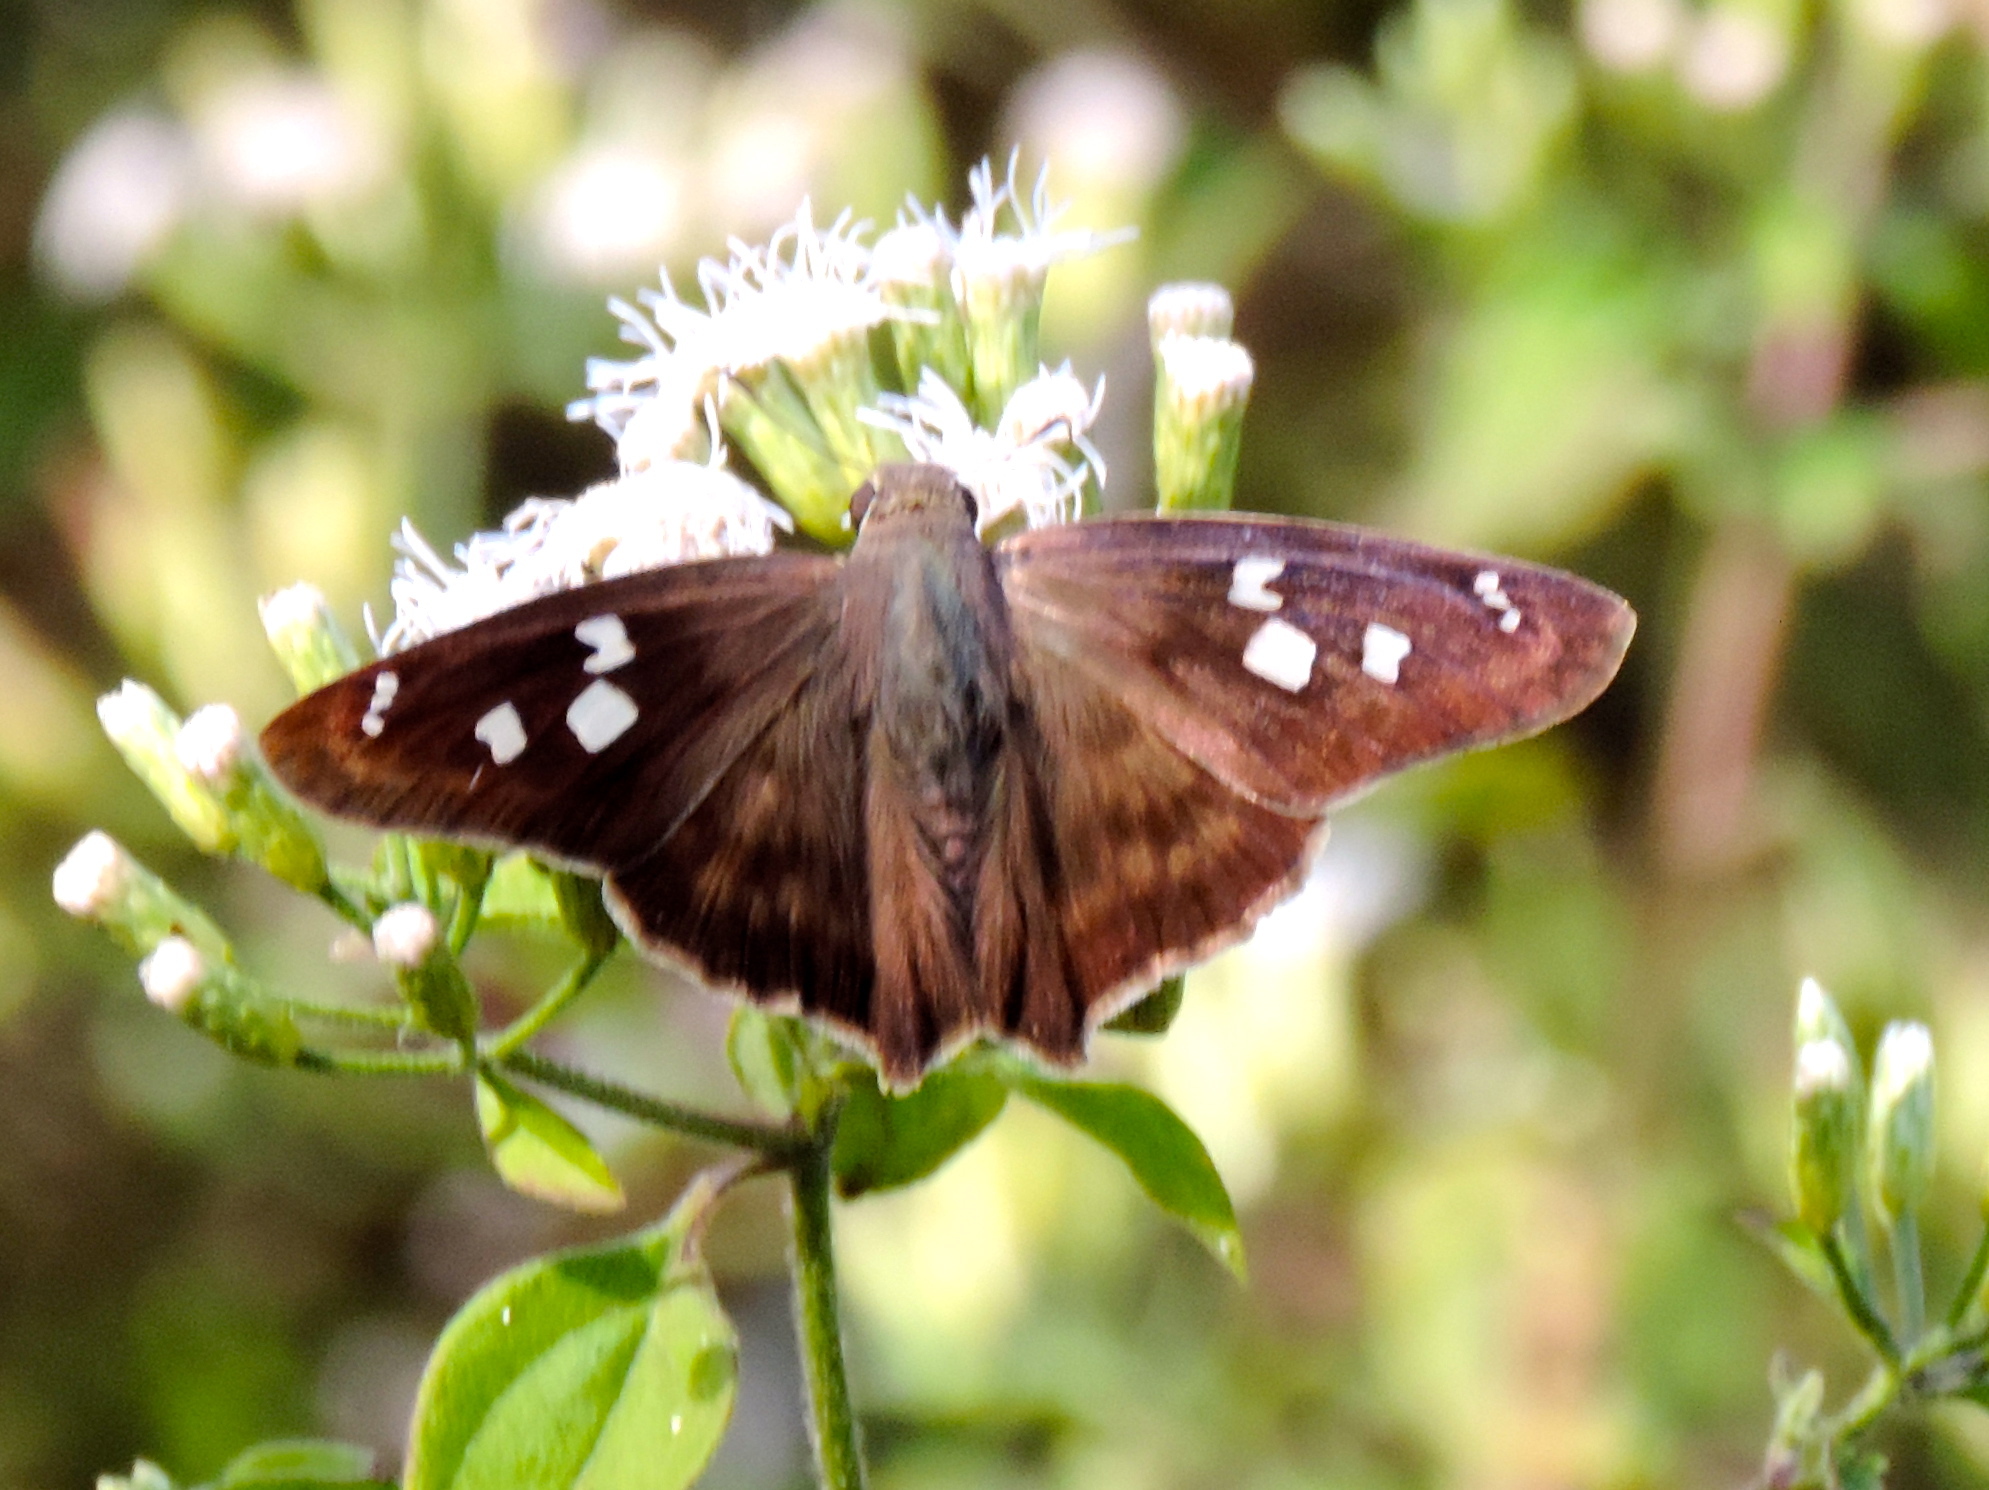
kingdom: Animalia
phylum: Arthropoda
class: Insecta
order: Lepidoptera
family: Hesperiidae
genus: Polygonus
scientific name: Polygonus leo
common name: Hammoch skipper
